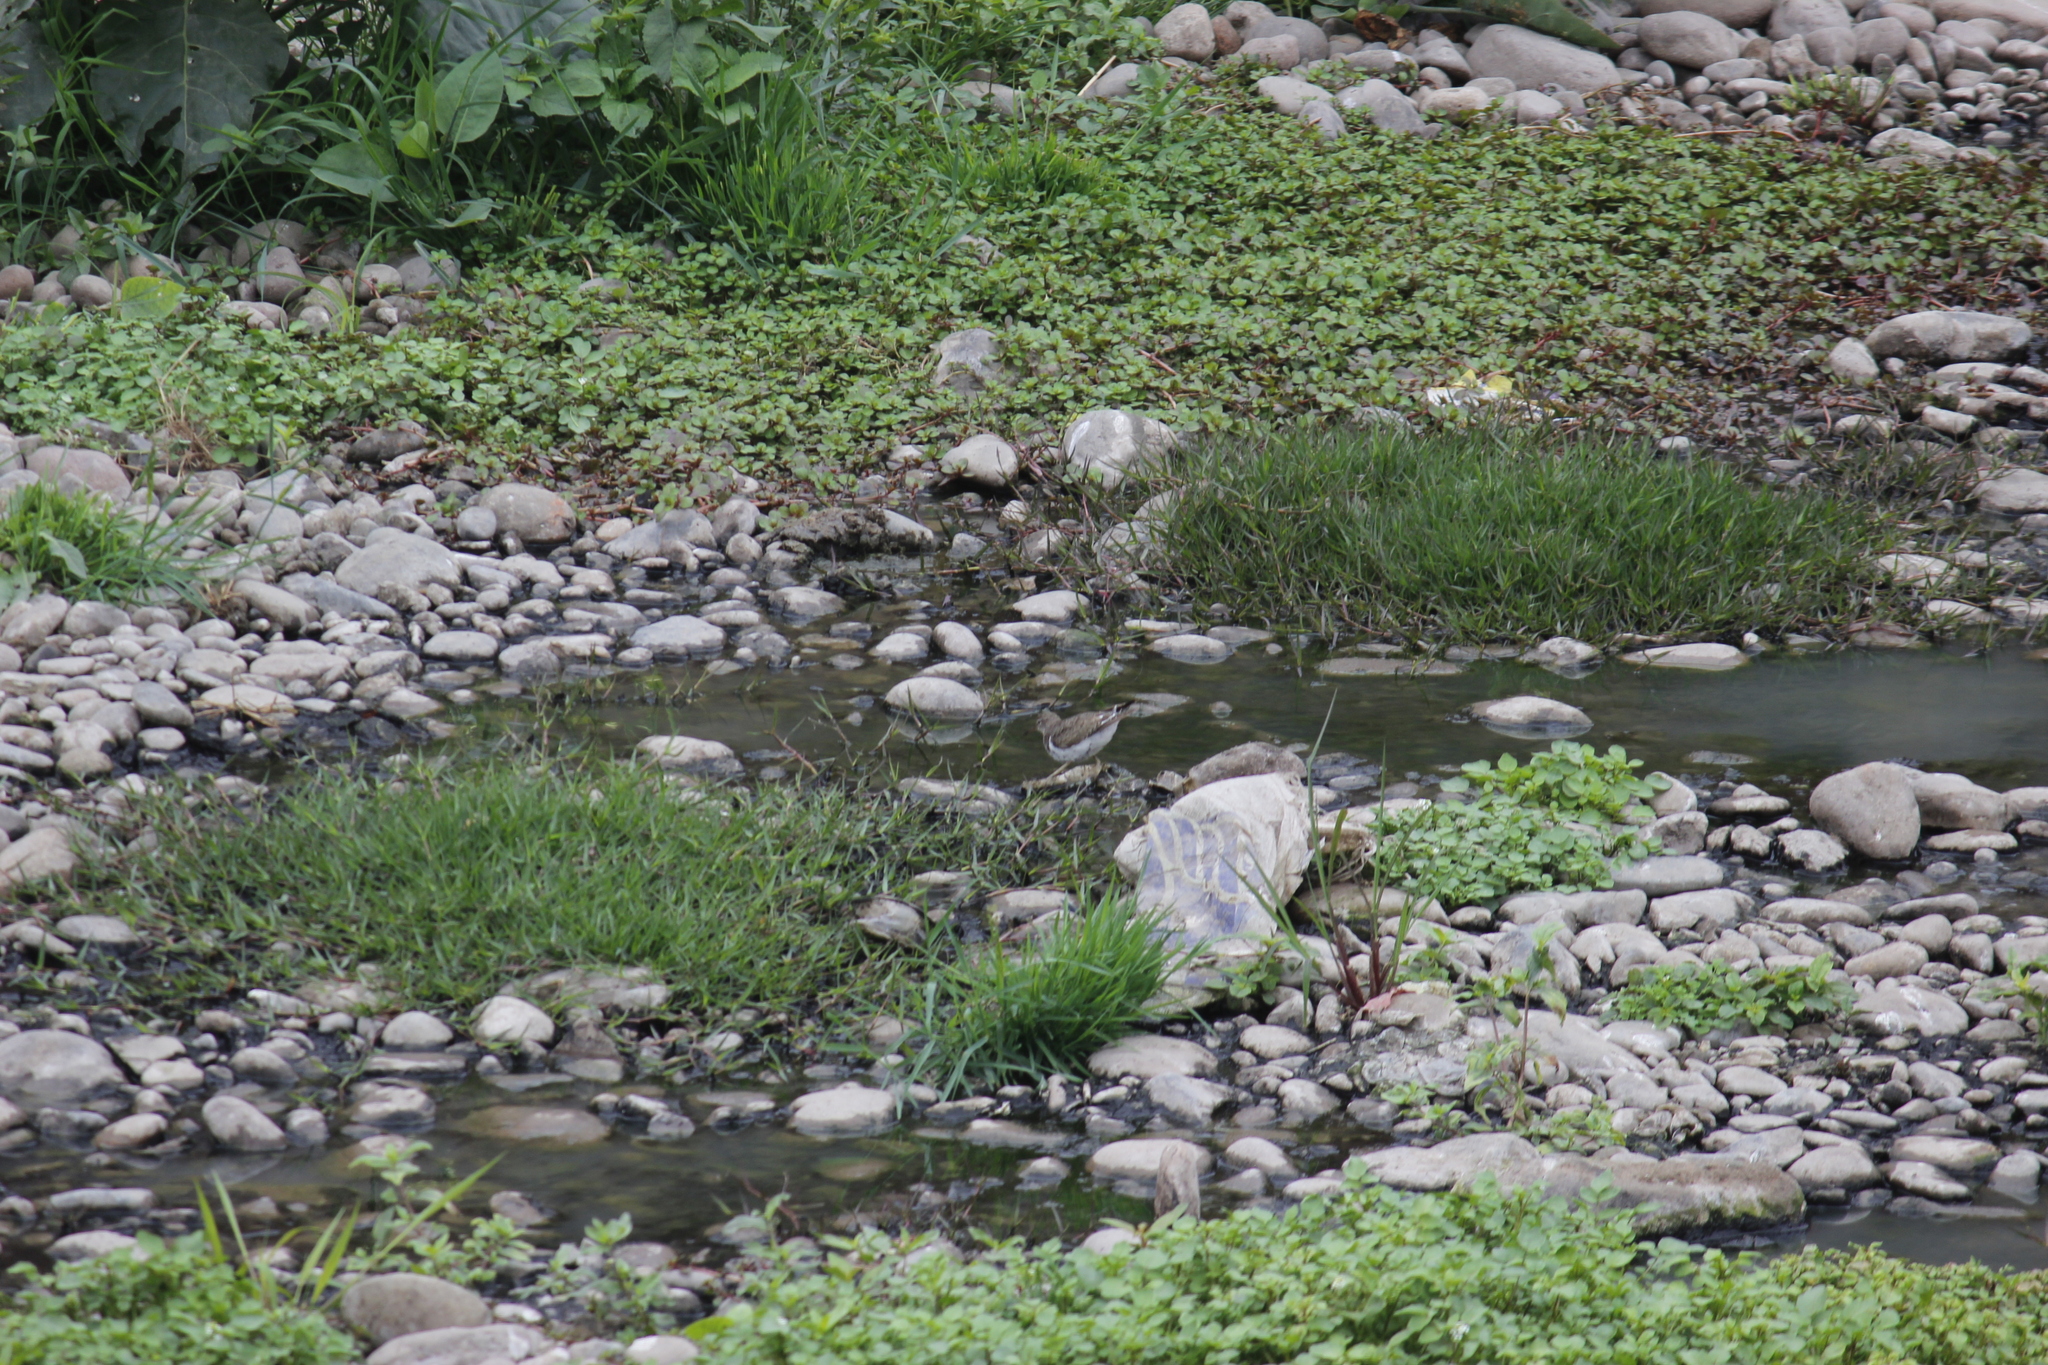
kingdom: Animalia
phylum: Chordata
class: Aves
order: Charadriiformes
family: Scolopacidae
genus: Actitis
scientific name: Actitis macularius
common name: Spotted sandpiper
